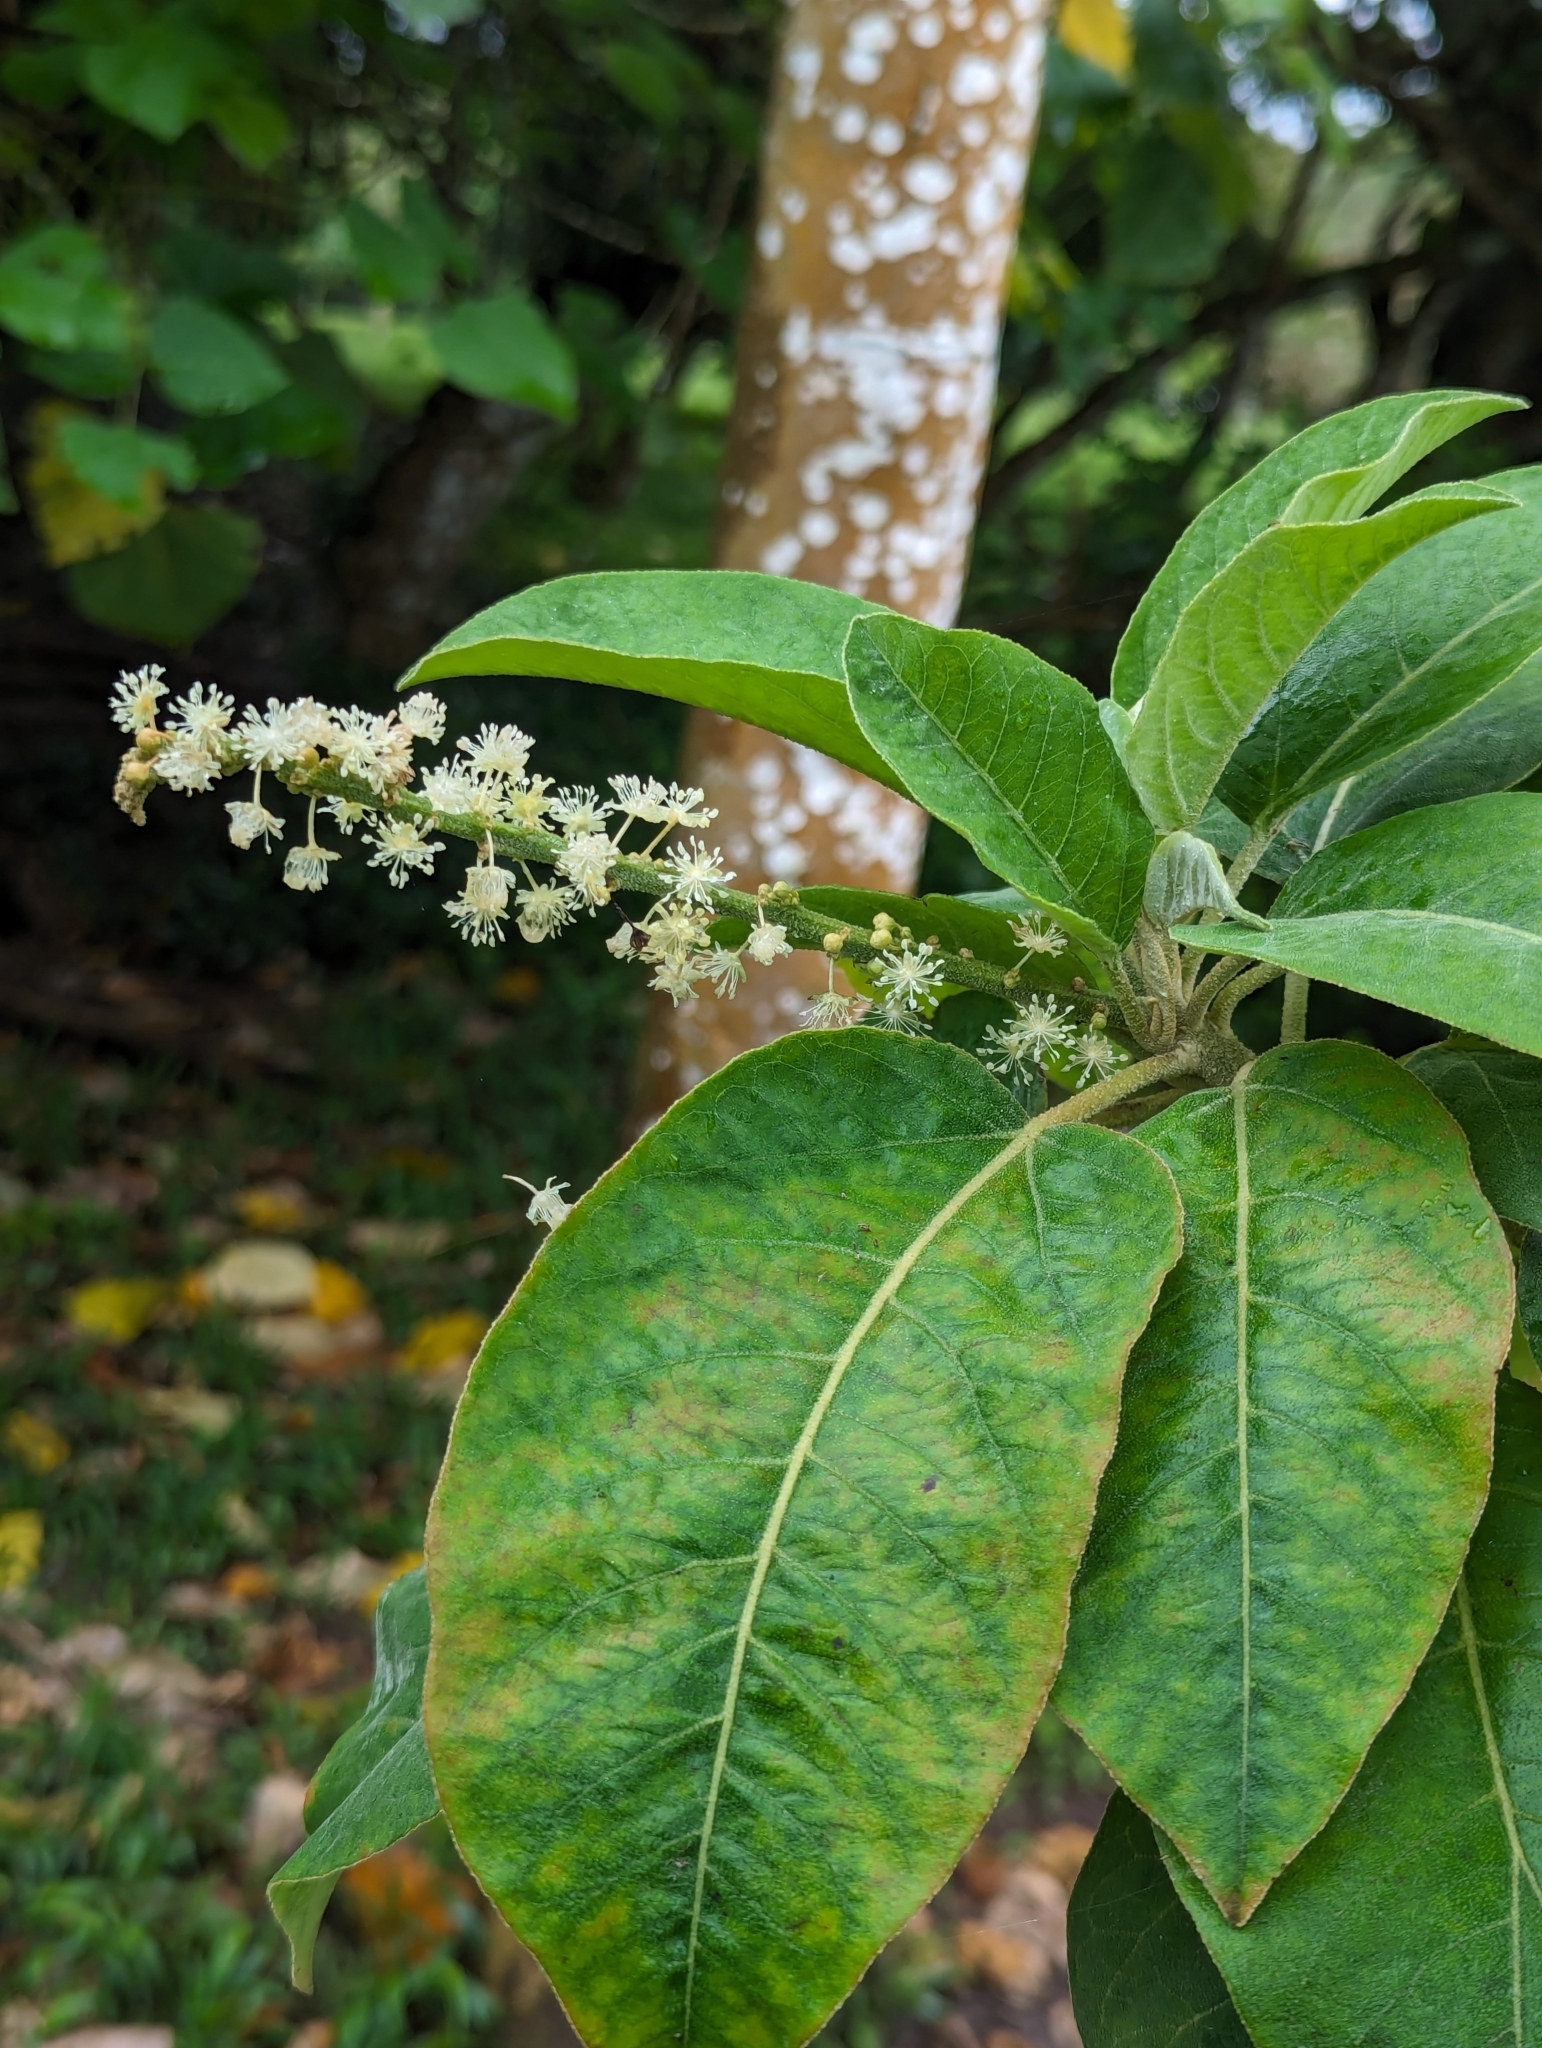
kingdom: Plantae
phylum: Tracheophyta
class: Magnoliopsida
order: Malpighiales
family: Euphorbiaceae
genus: Croton
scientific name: Croton scouleri
